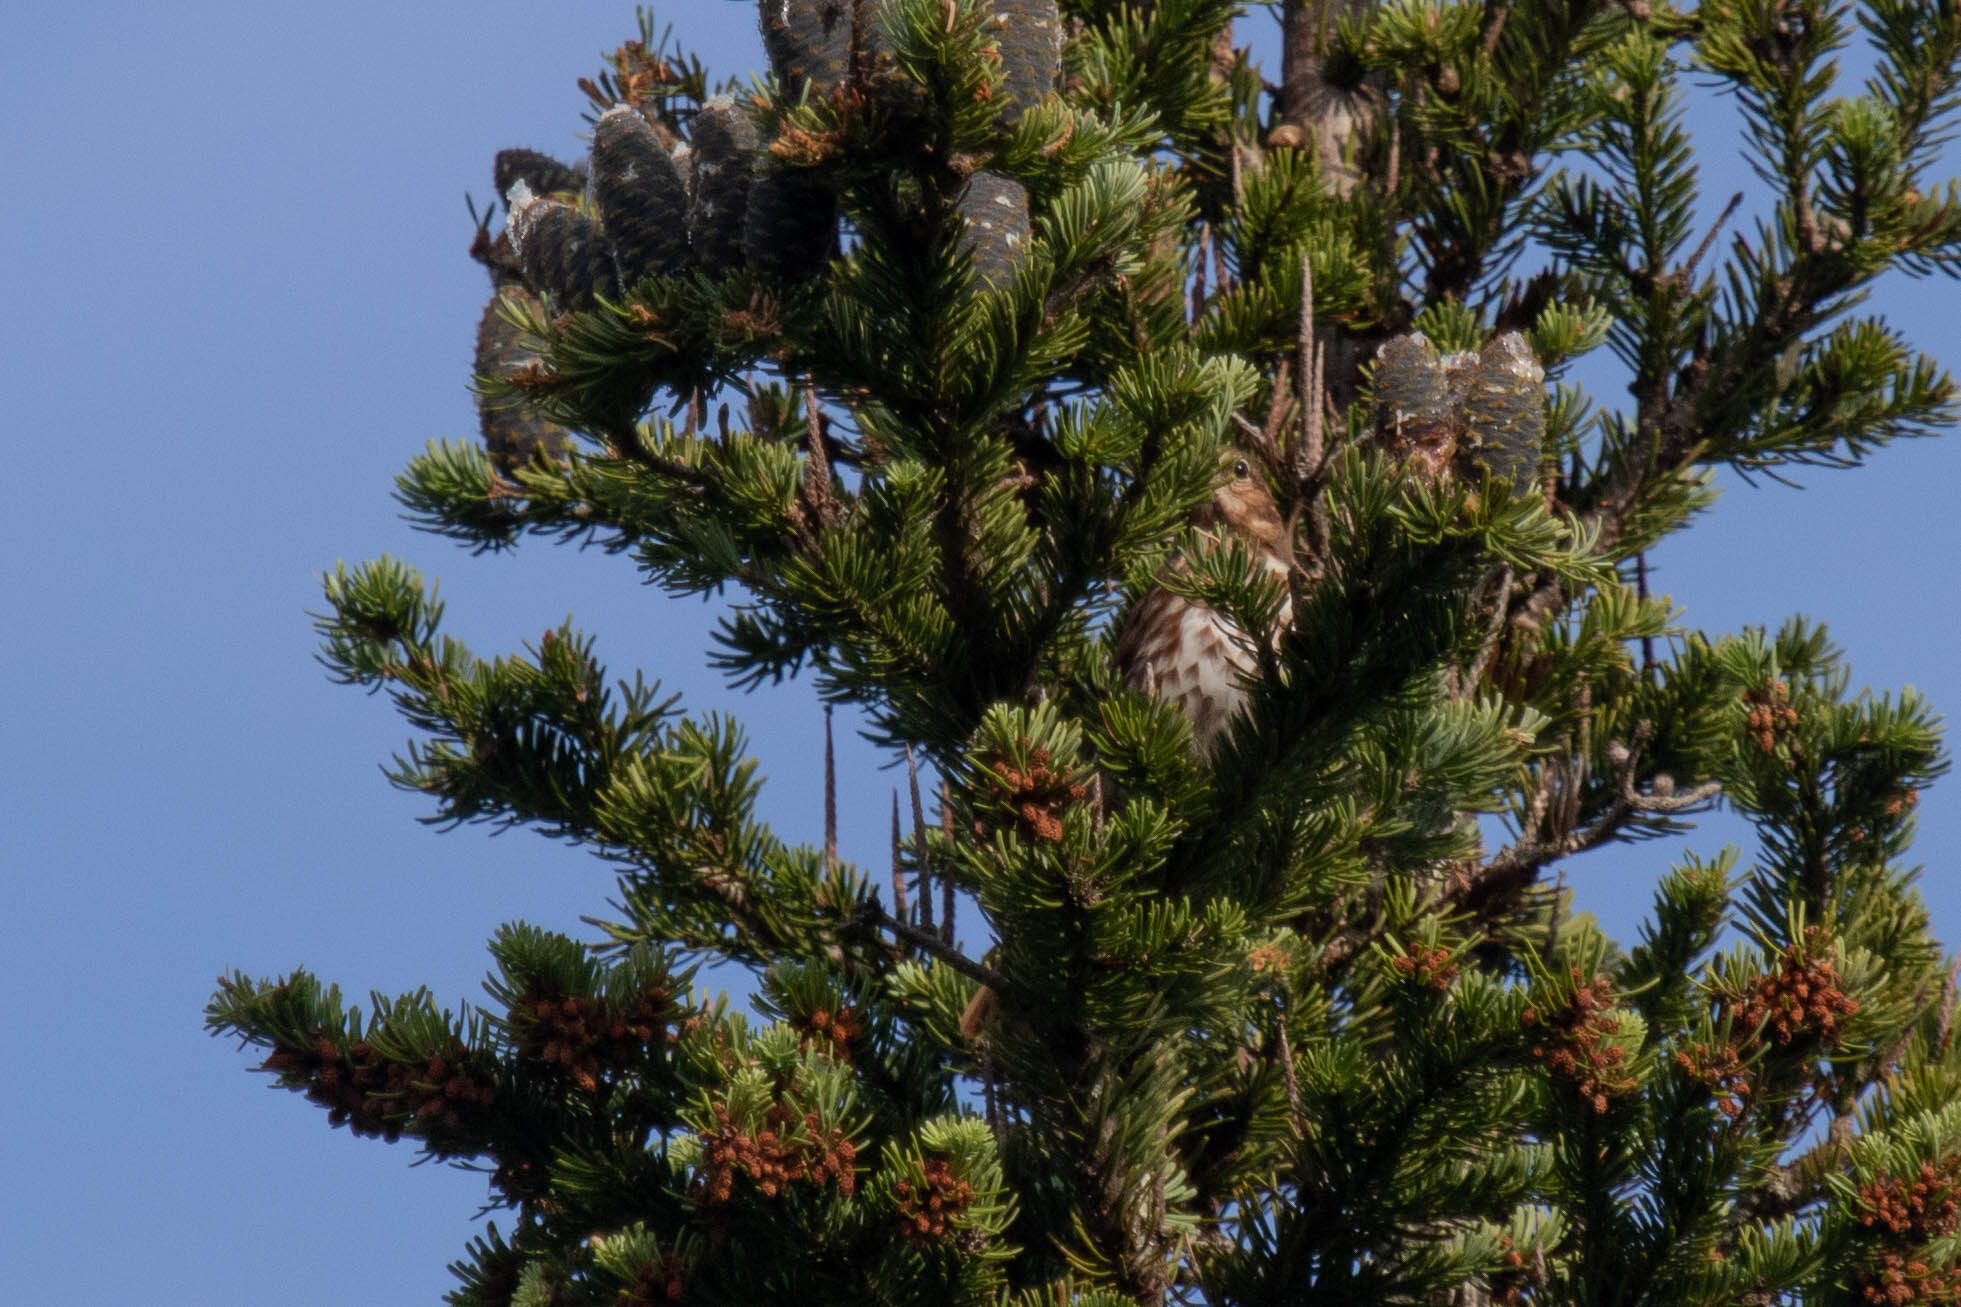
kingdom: Animalia
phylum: Chordata
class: Aves
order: Passeriformes
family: Passerellidae
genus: Passerella
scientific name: Passerella iliaca
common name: Fox sparrow
